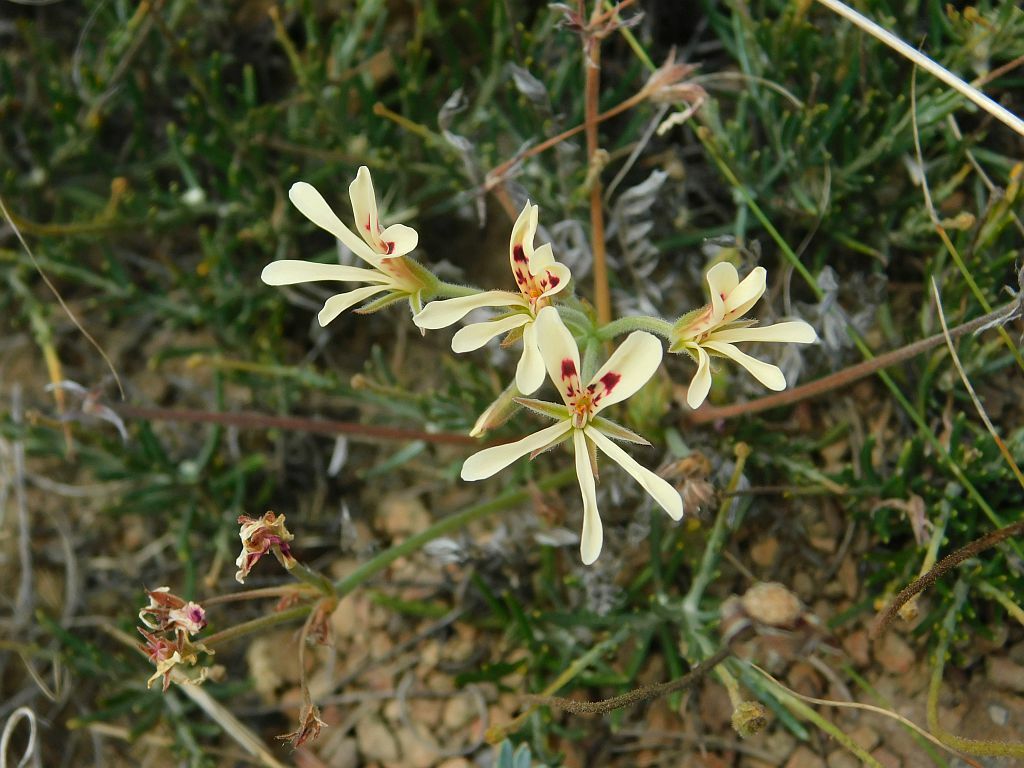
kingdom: Plantae
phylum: Tracheophyta
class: Magnoliopsida
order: Geraniales
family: Geraniaceae
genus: Pelargonium
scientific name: Pelargonium pinnatum
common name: Pinnated pelargonium
